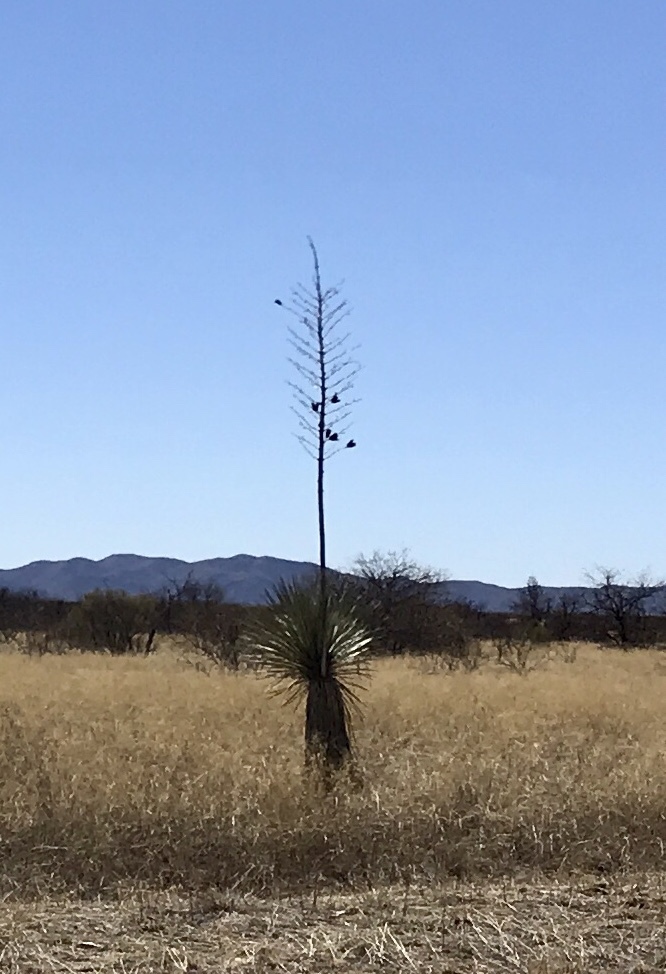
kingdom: Plantae
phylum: Tracheophyta
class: Liliopsida
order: Asparagales
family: Asparagaceae
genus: Yucca
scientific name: Yucca elata
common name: Palmella
